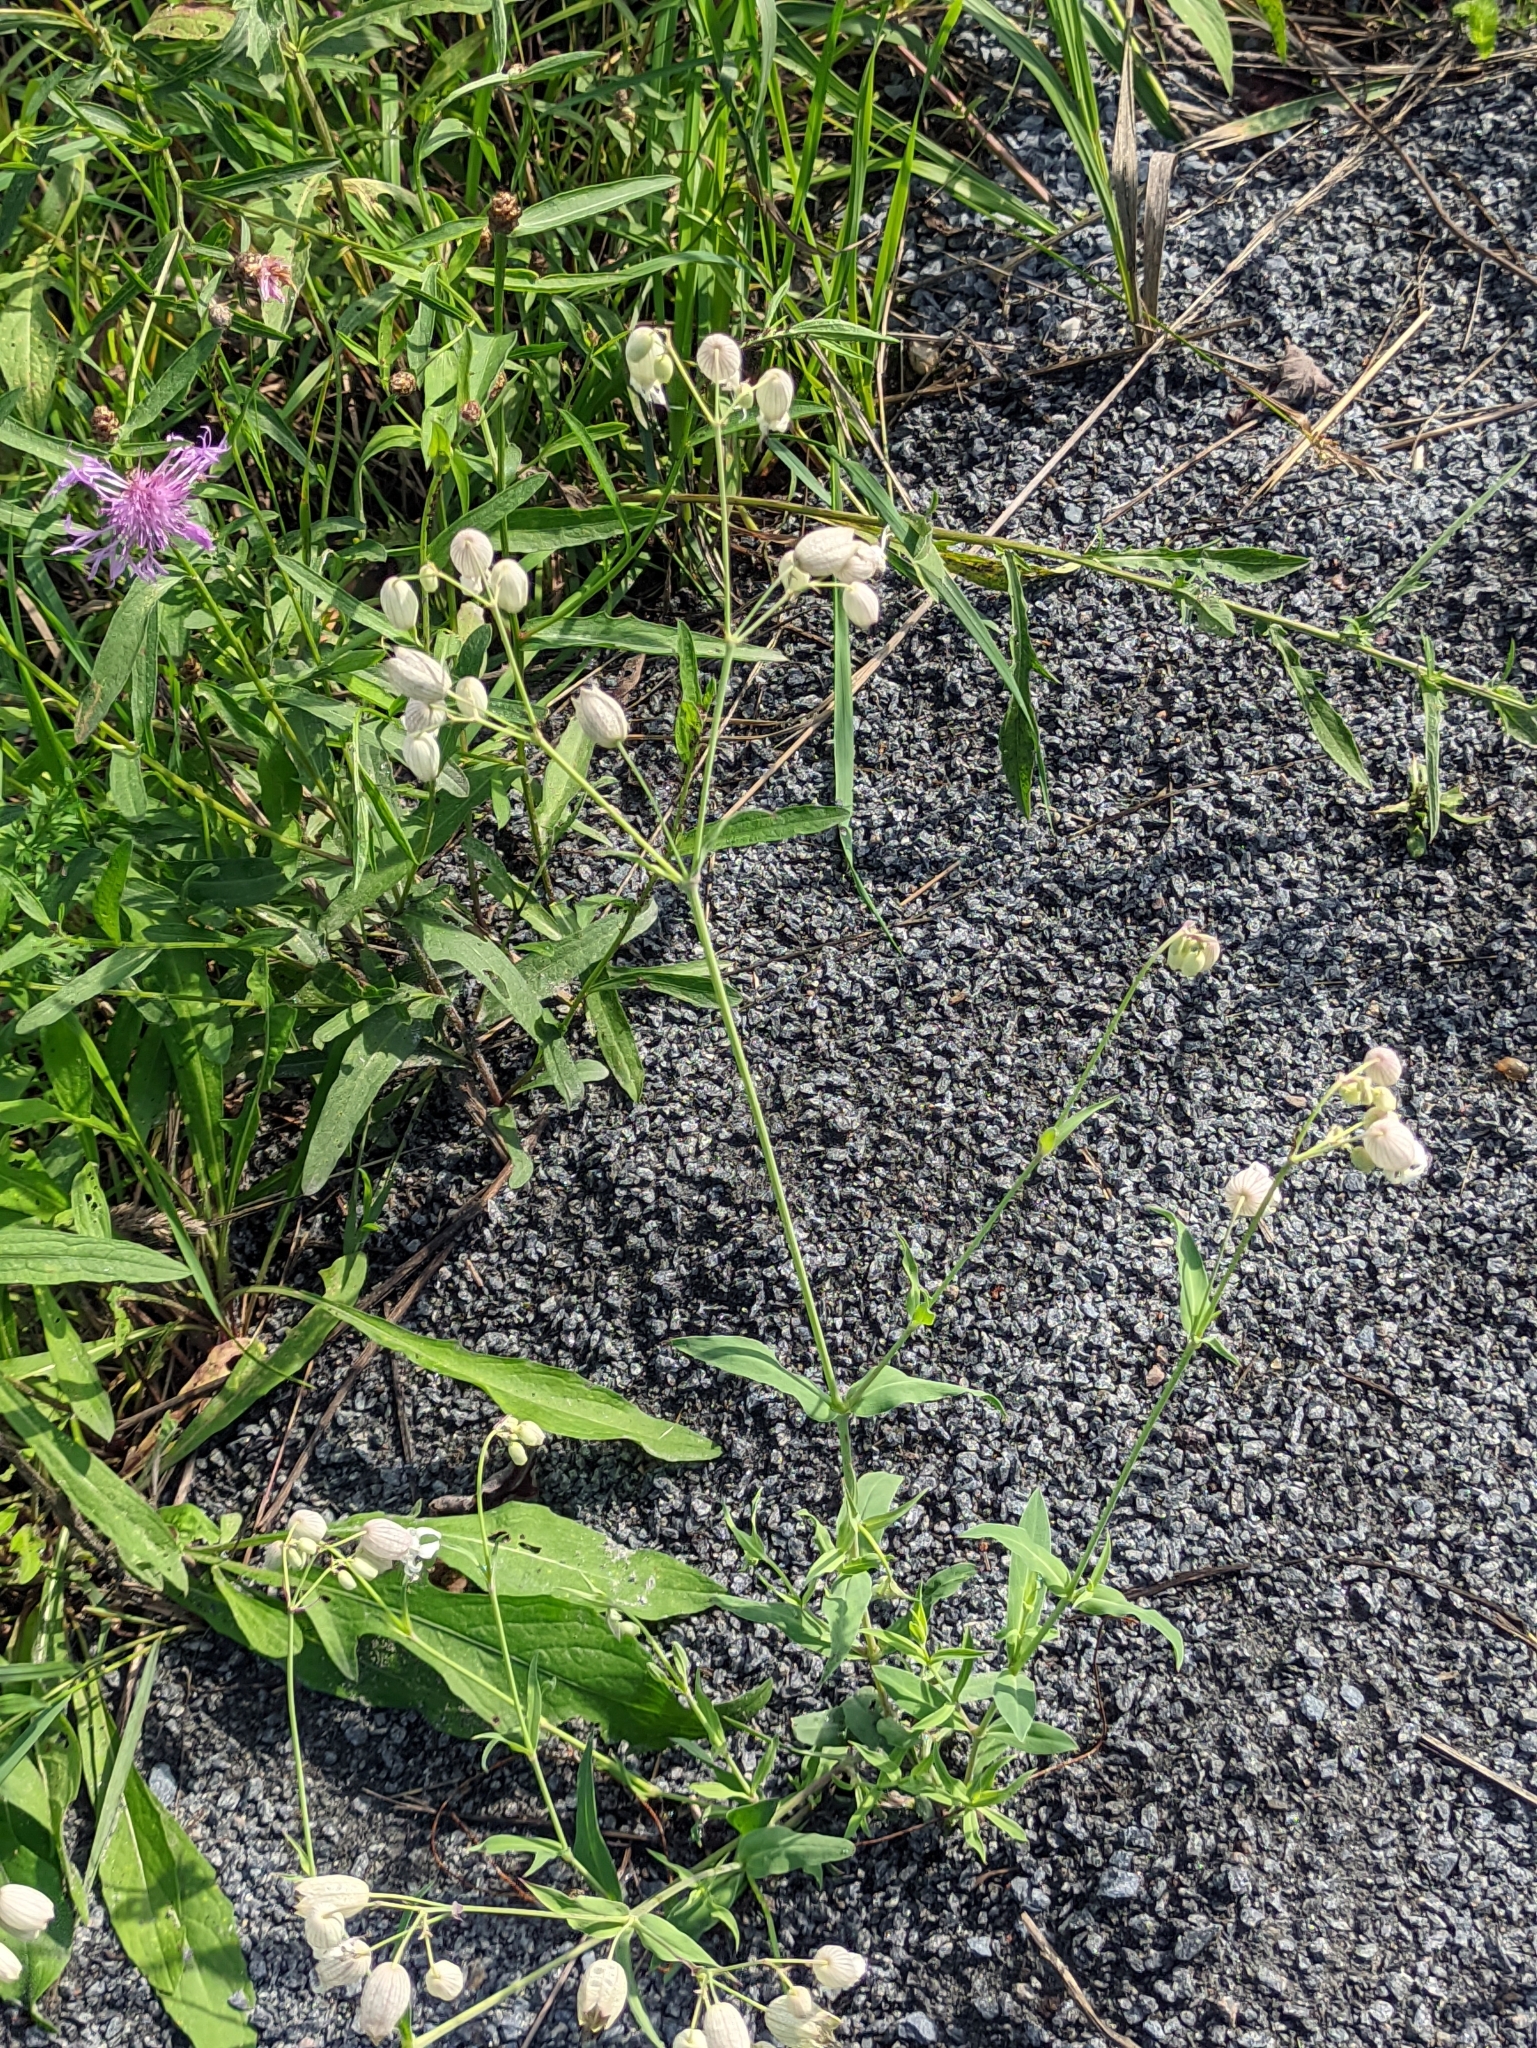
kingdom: Plantae
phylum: Tracheophyta
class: Magnoliopsida
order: Caryophyllales
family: Caryophyllaceae
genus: Silene
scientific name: Silene vulgaris
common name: Bladder campion
